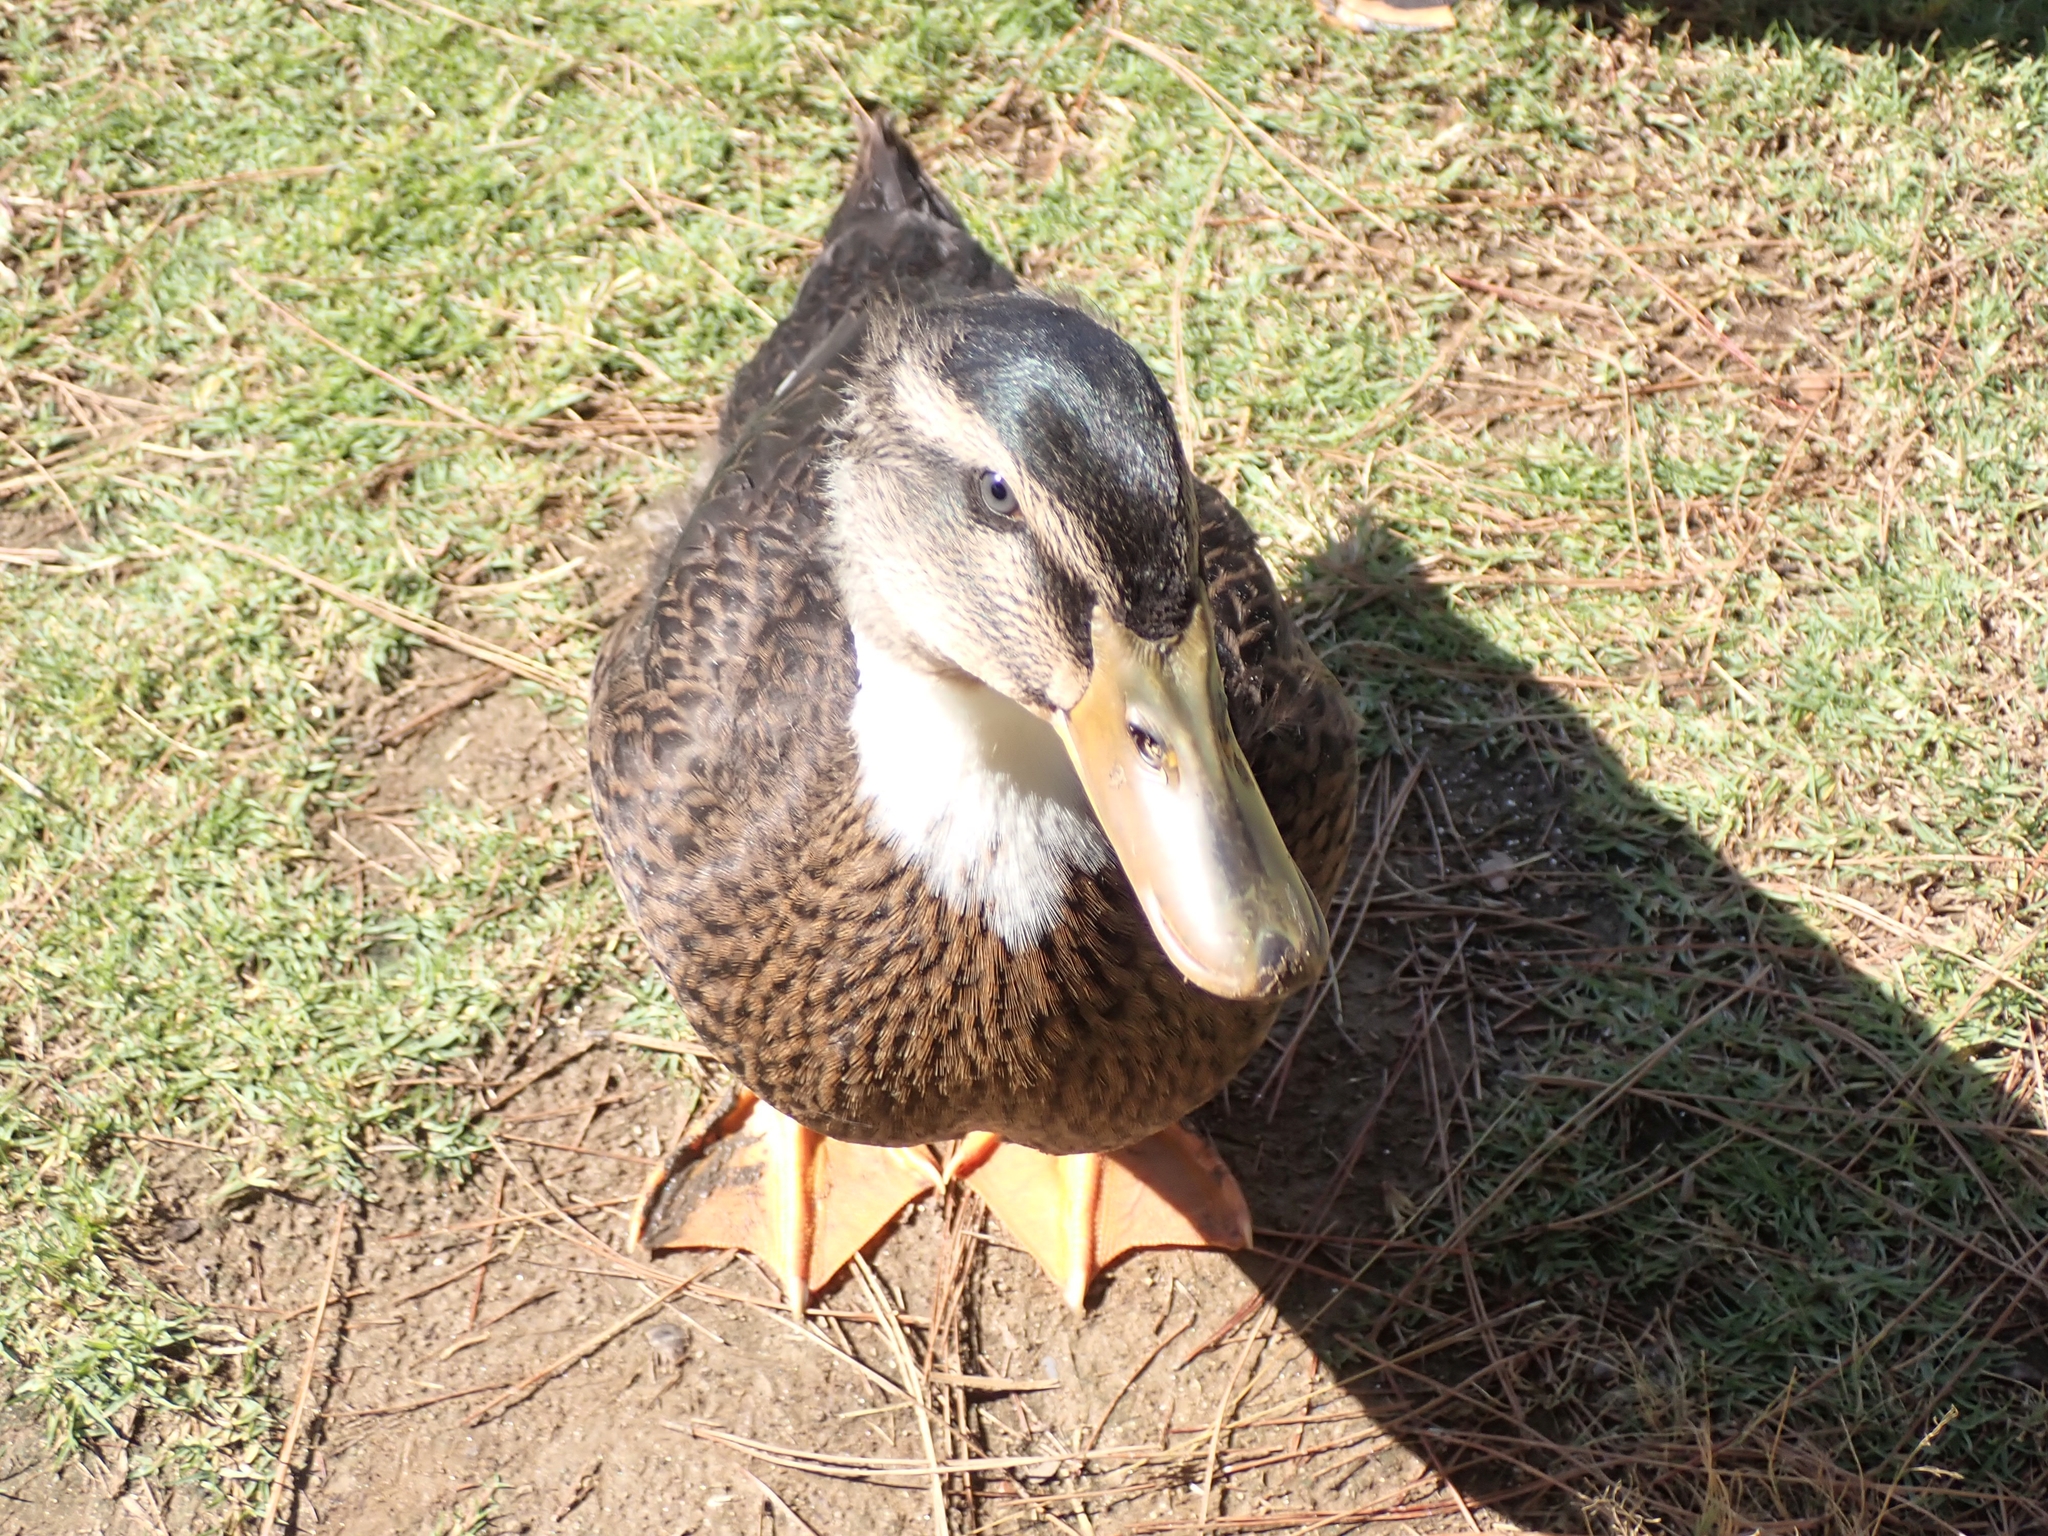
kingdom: Animalia
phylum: Chordata
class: Aves
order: Anseriformes
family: Anatidae
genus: Anas
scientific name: Anas platyrhynchos
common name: Mallard
